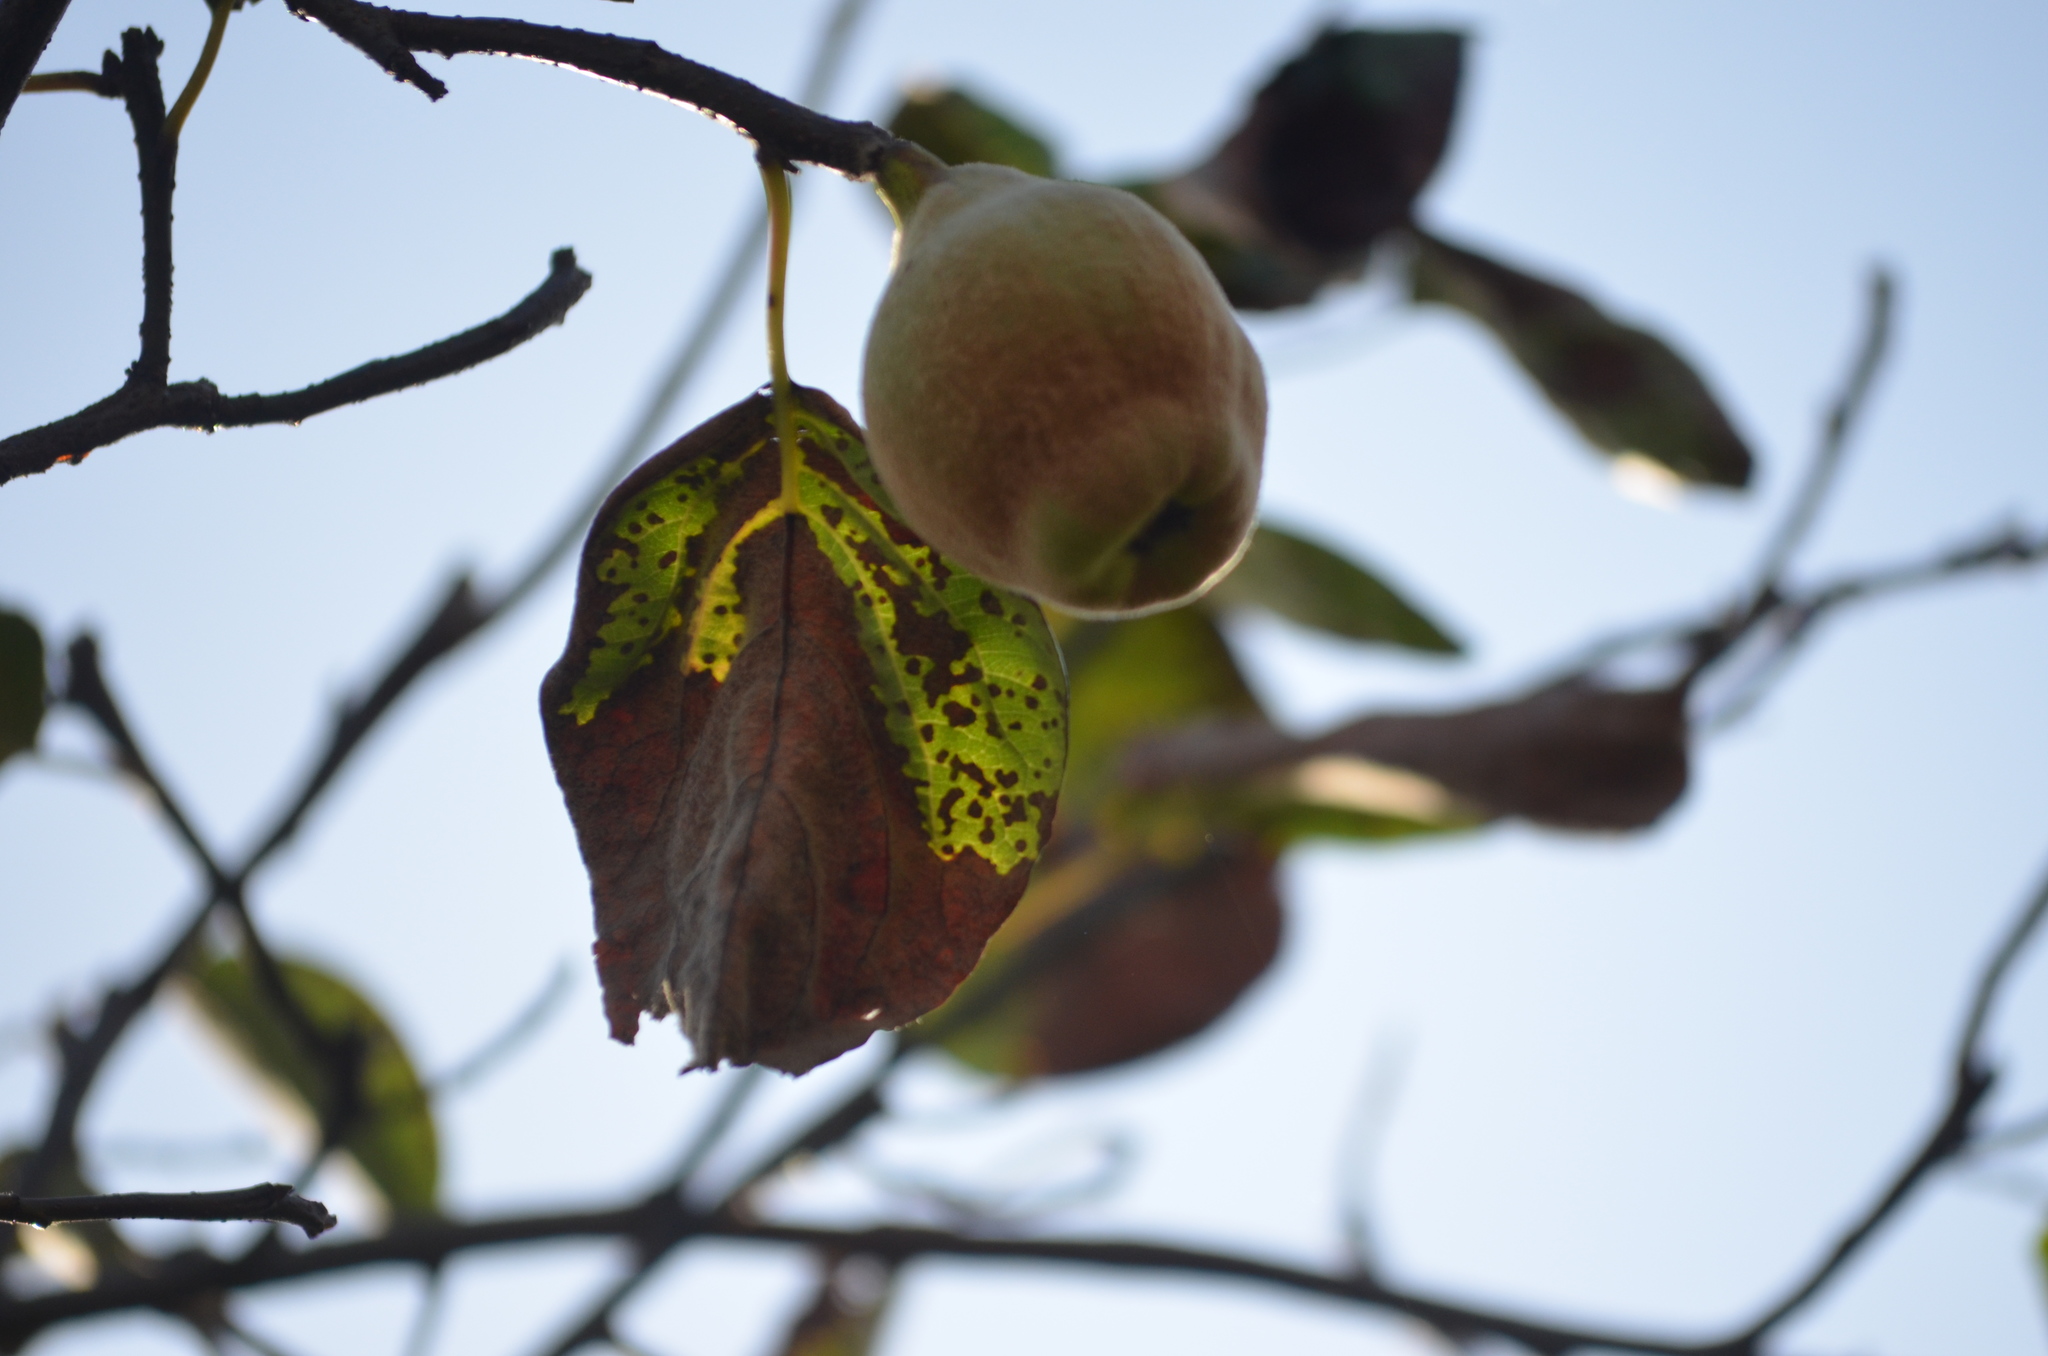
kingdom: Plantae
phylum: Tracheophyta
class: Magnoliopsida
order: Rosales
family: Rosaceae
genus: Cydonia
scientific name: Cydonia oblonga
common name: Quince
